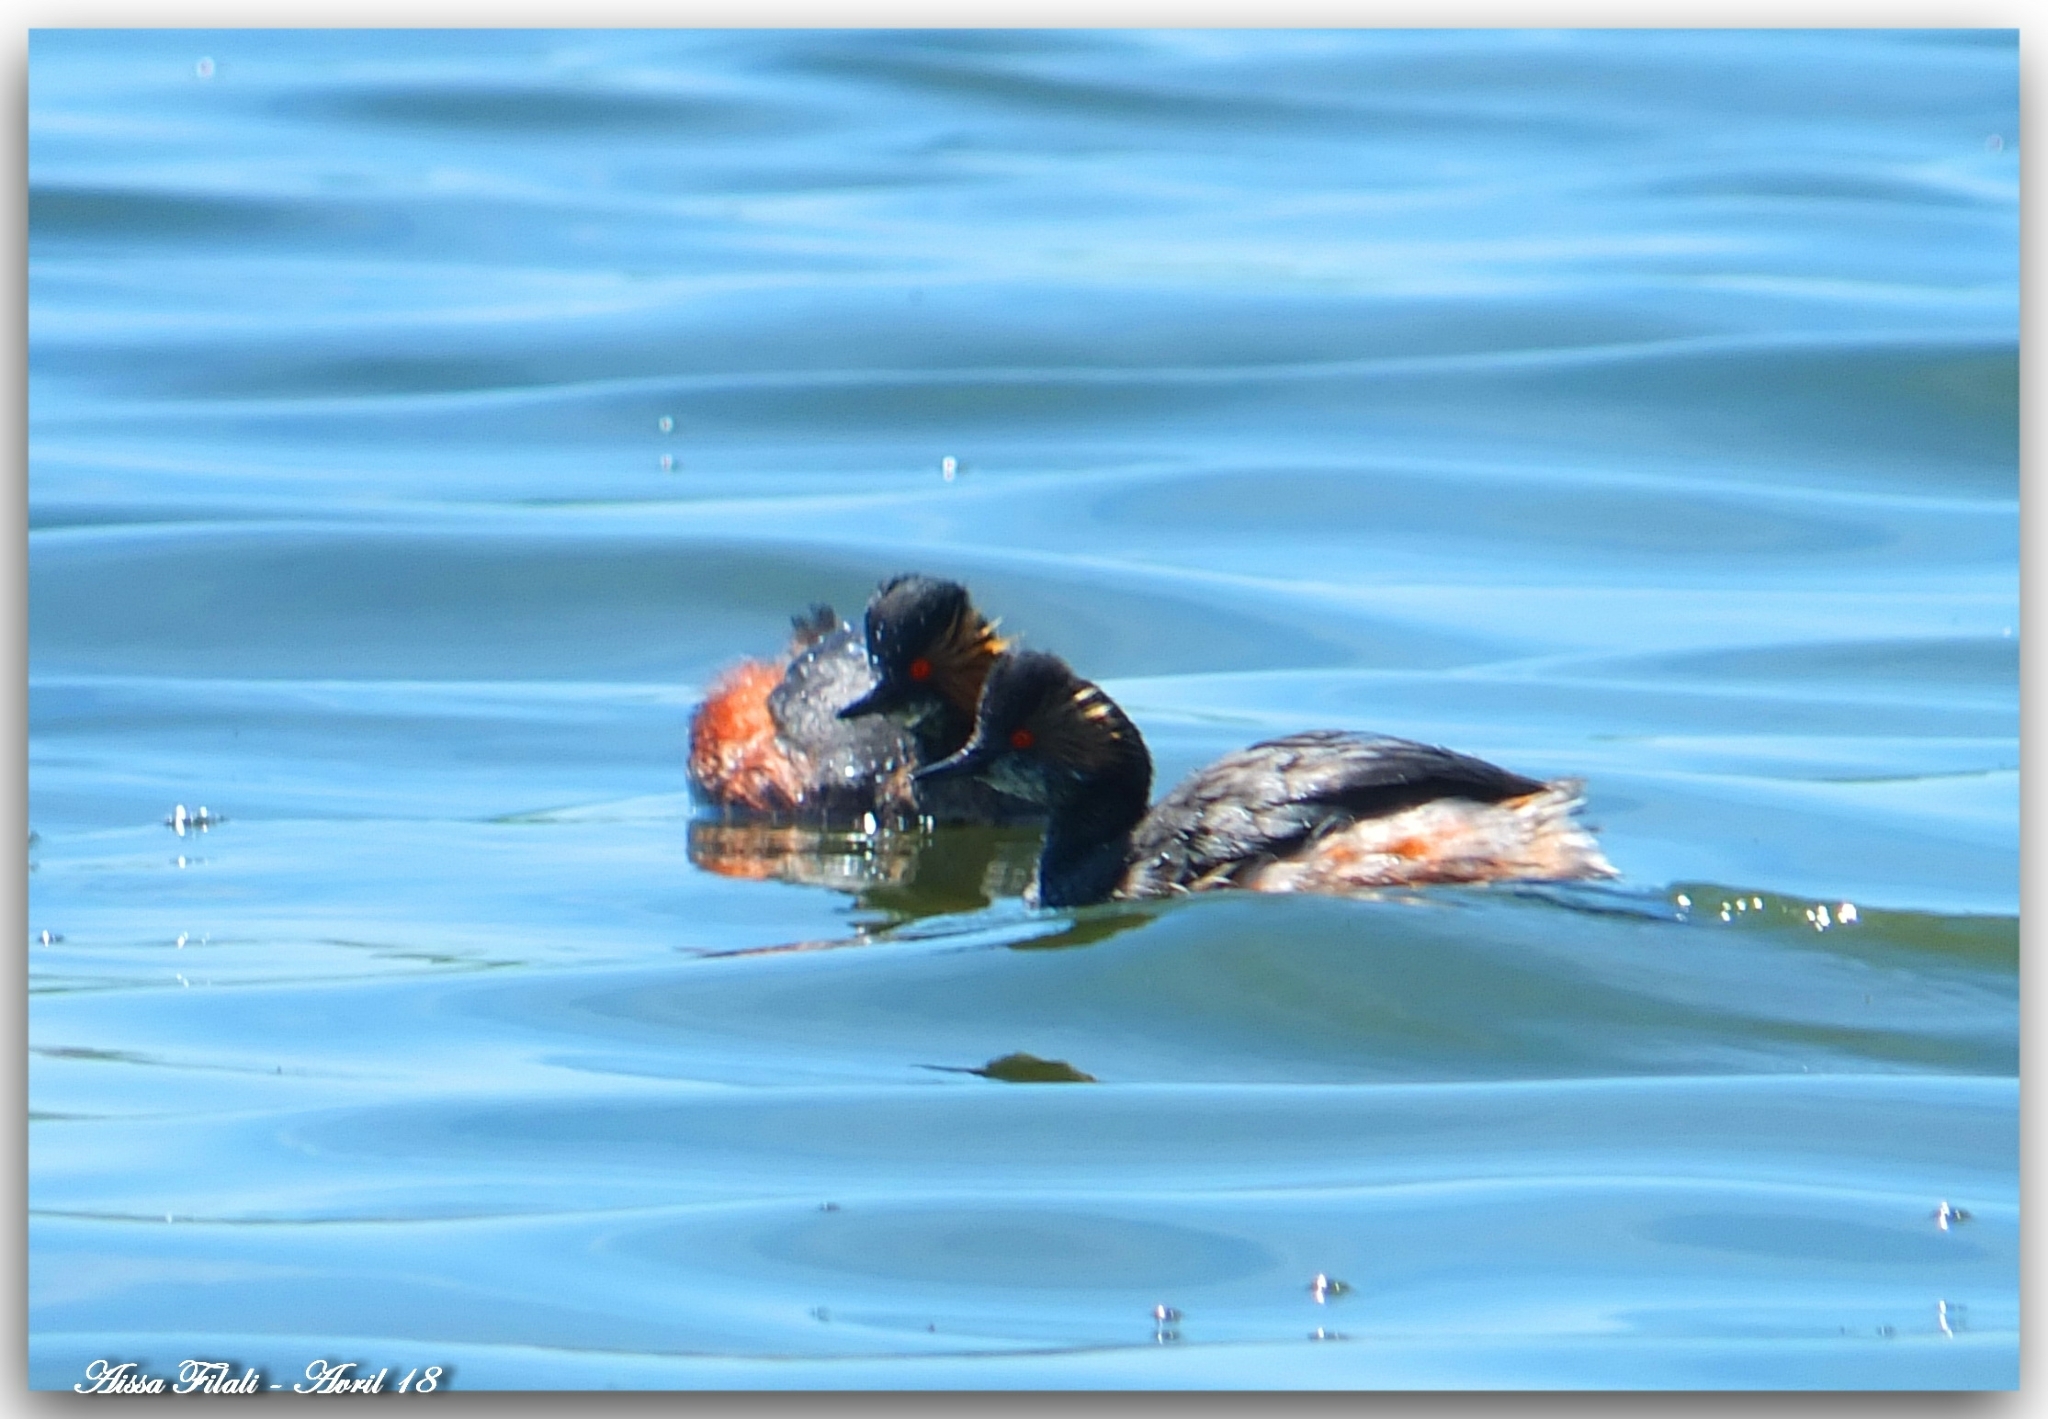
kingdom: Animalia
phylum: Chordata
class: Aves
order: Podicipediformes
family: Podicipedidae
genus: Podiceps
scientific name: Podiceps nigricollis
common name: Black-necked grebe
